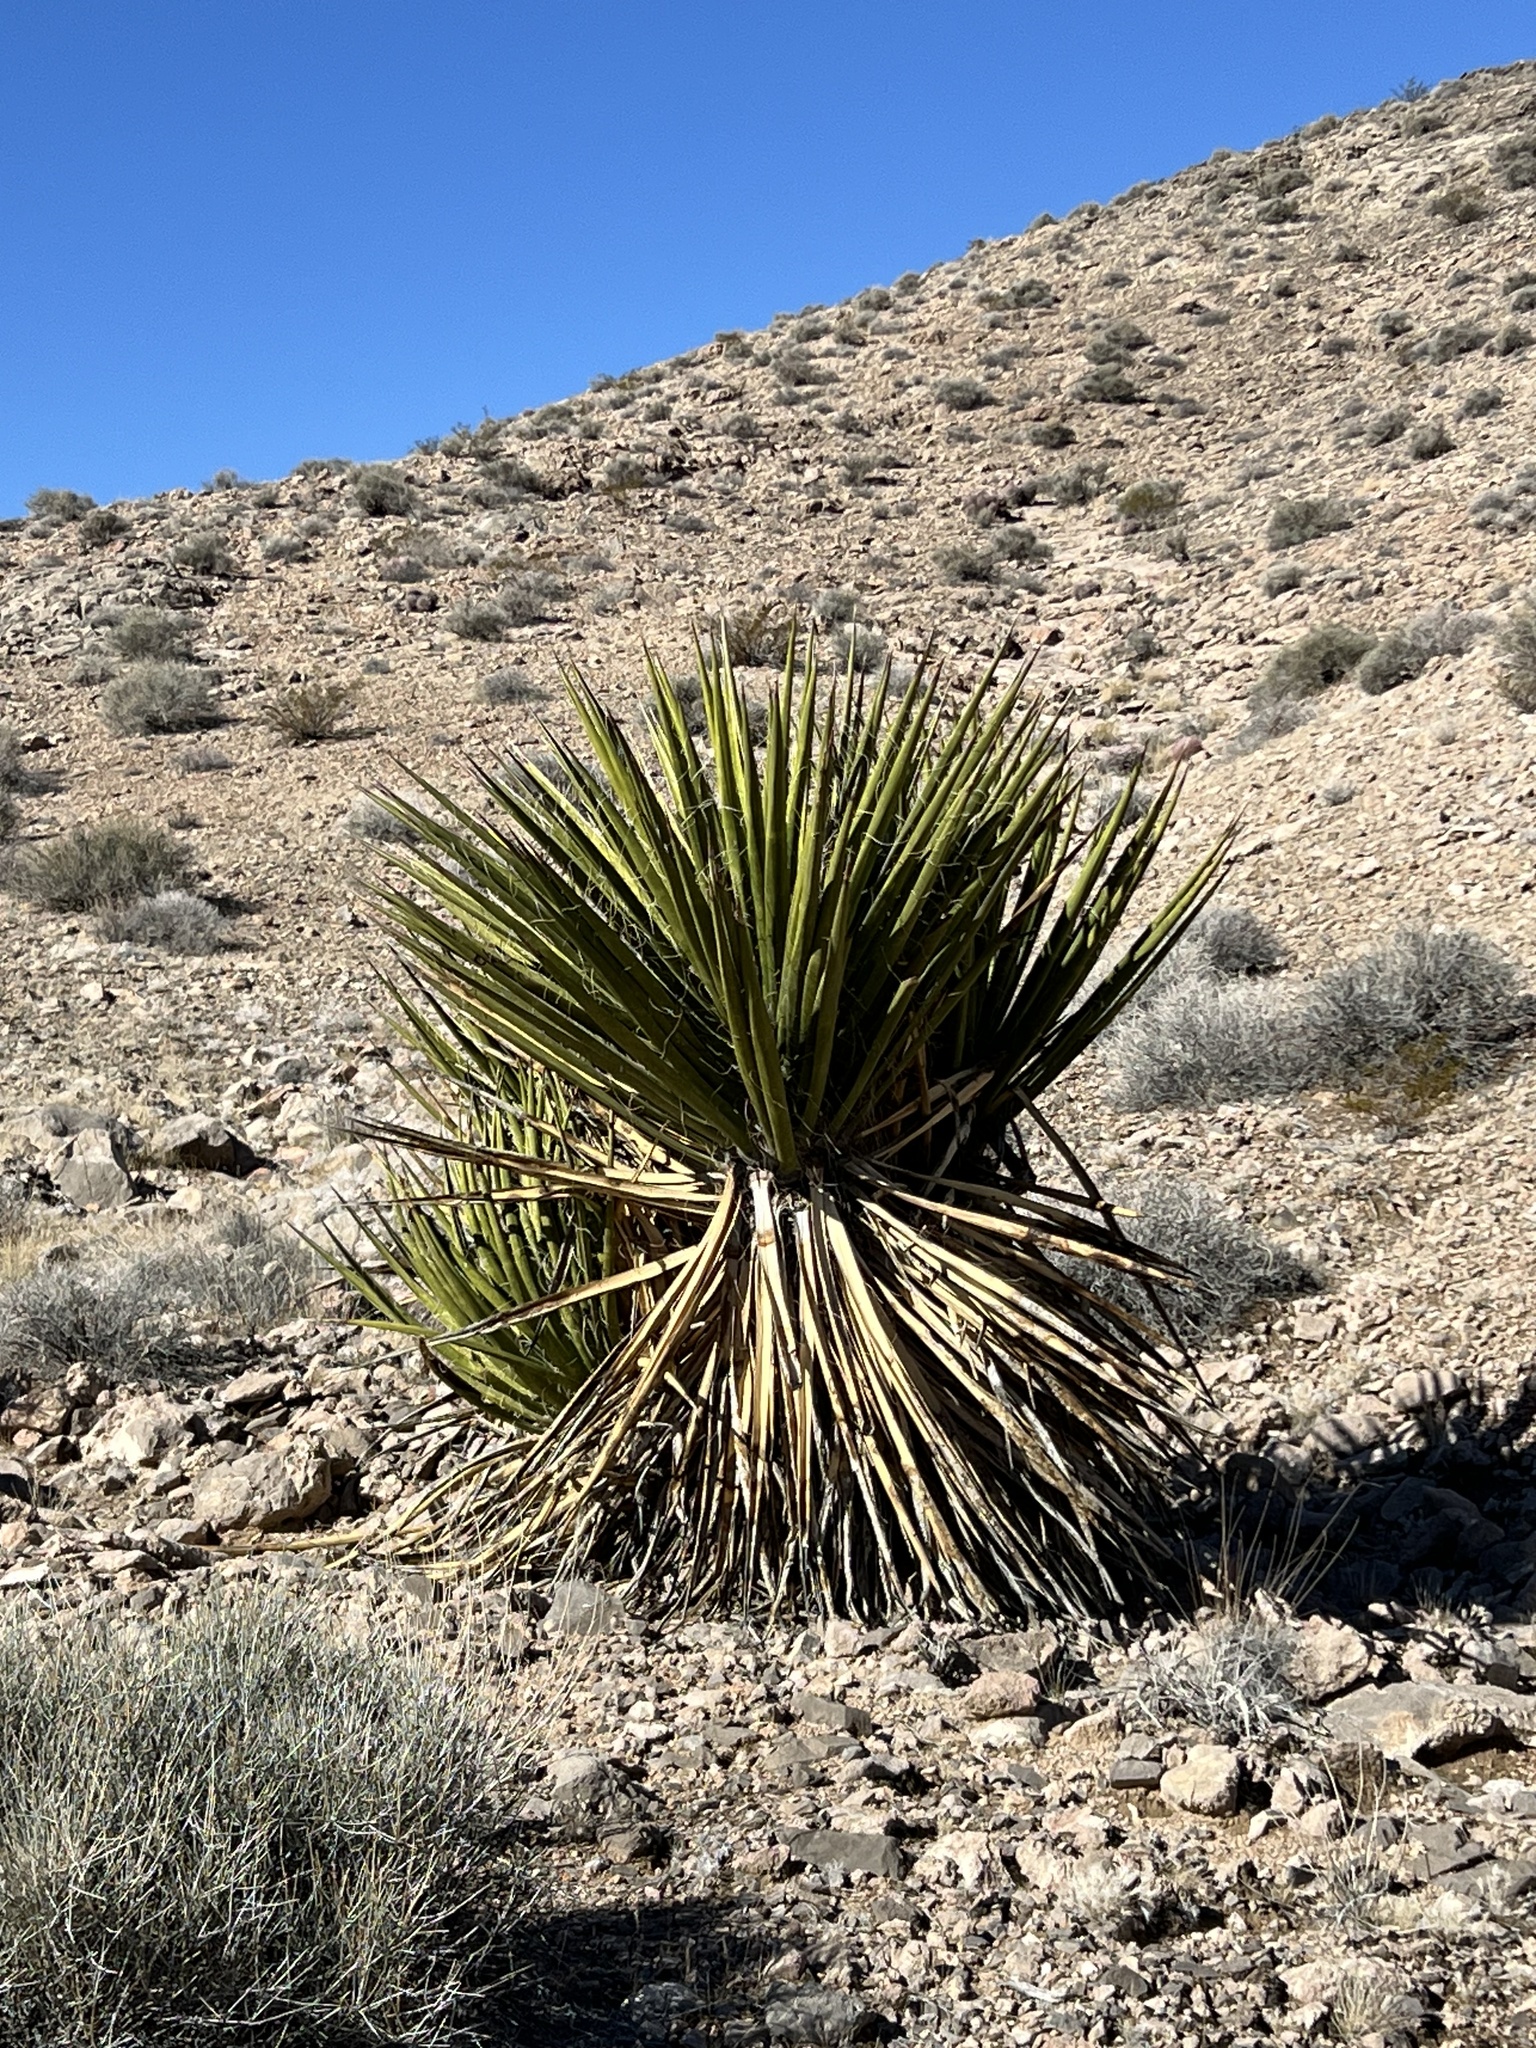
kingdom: Plantae
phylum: Tracheophyta
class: Liliopsida
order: Asparagales
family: Asparagaceae
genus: Yucca
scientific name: Yucca schidigera
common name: Mojave yucca
